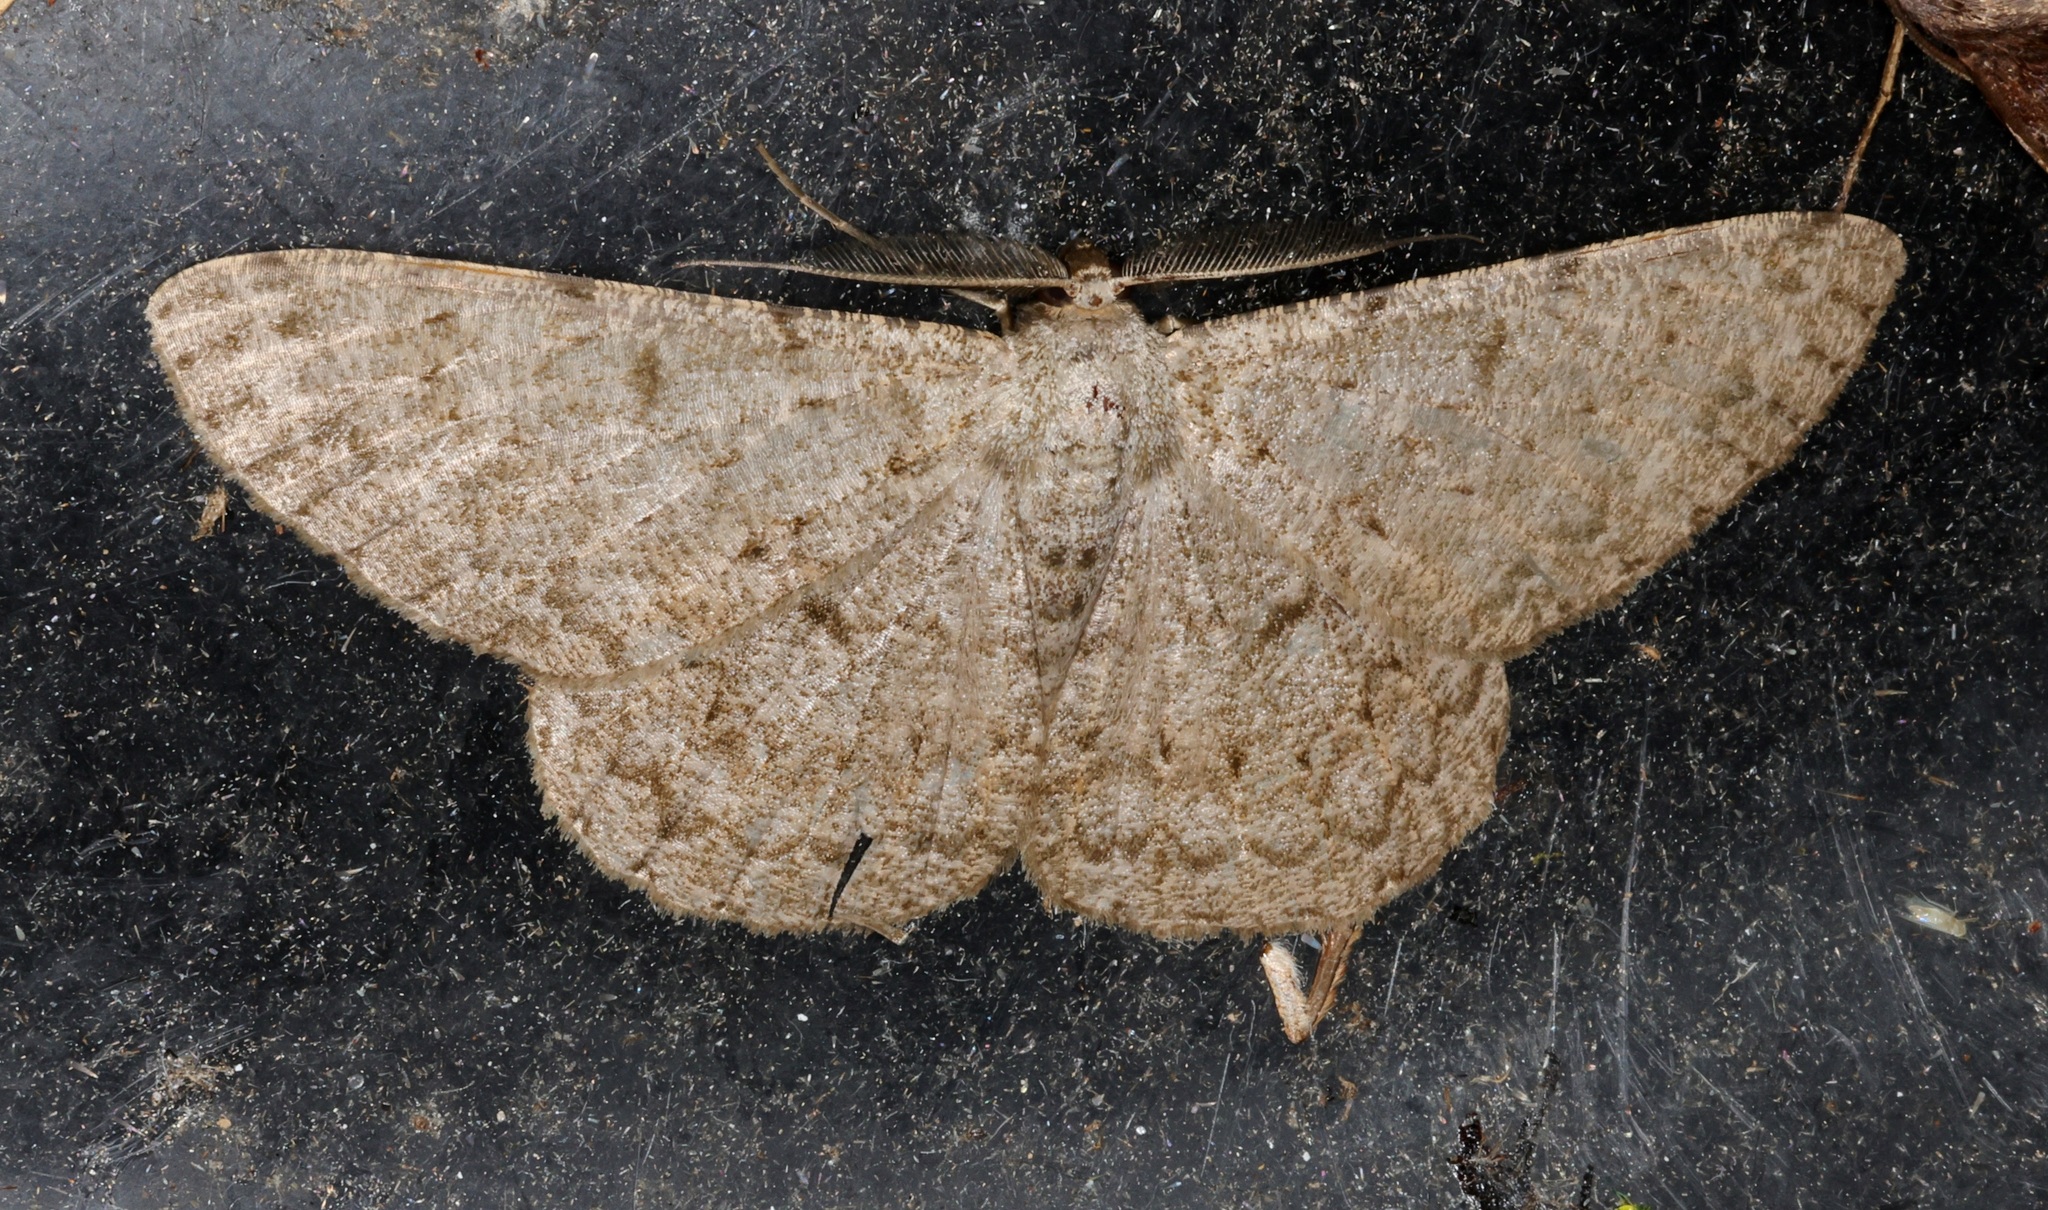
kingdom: Animalia
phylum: Arthropoda
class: Insecta
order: Lepidoptera
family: Geometridae
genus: Hypomecis
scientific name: Hypomecis cineracea
